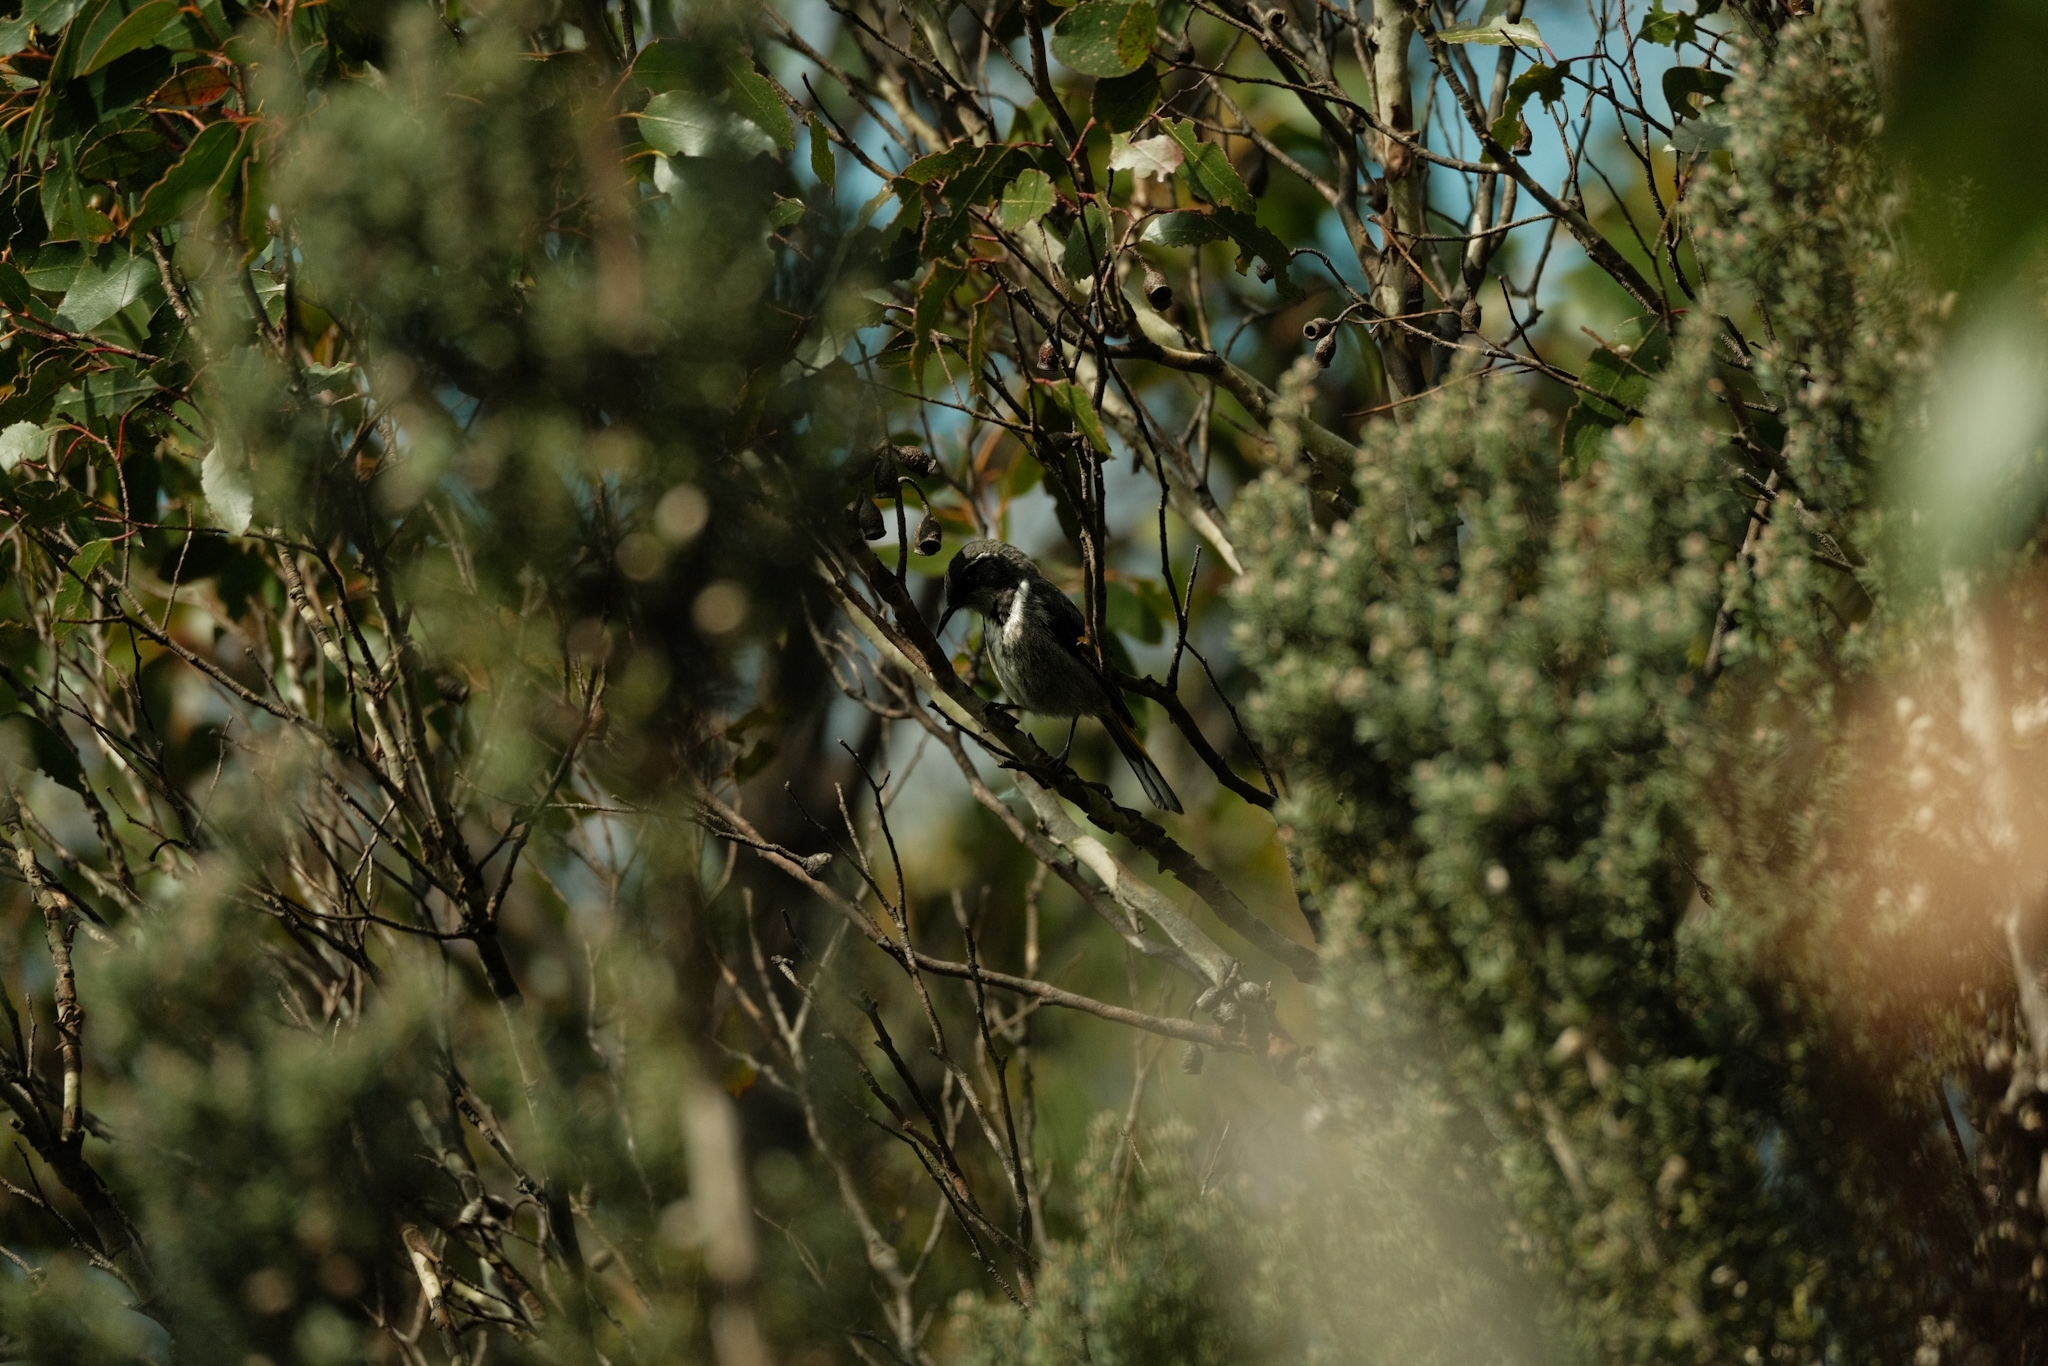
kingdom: Animalia
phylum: Chordata
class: Aves
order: Passeriformes
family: Meliphagidae
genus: Phylidonyris
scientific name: Phylidonyris pyrrhopterus
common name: Crescent honeyeater
